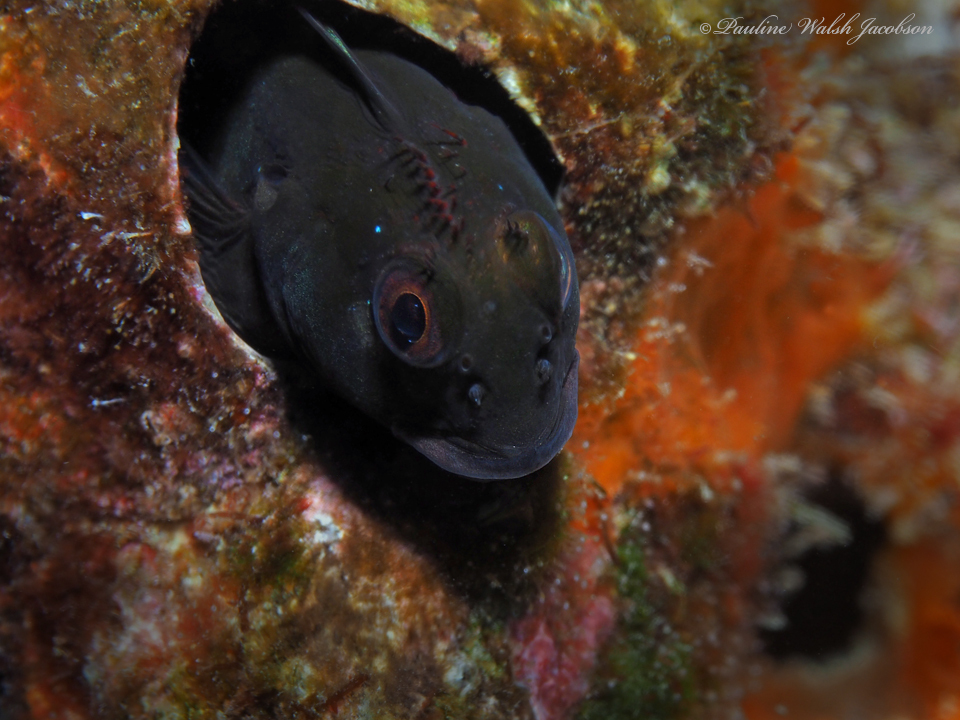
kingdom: Animalia
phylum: Chordata
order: Perciformes
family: Blenniidae
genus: Scartella
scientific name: Scartella cristata
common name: Molly miller
